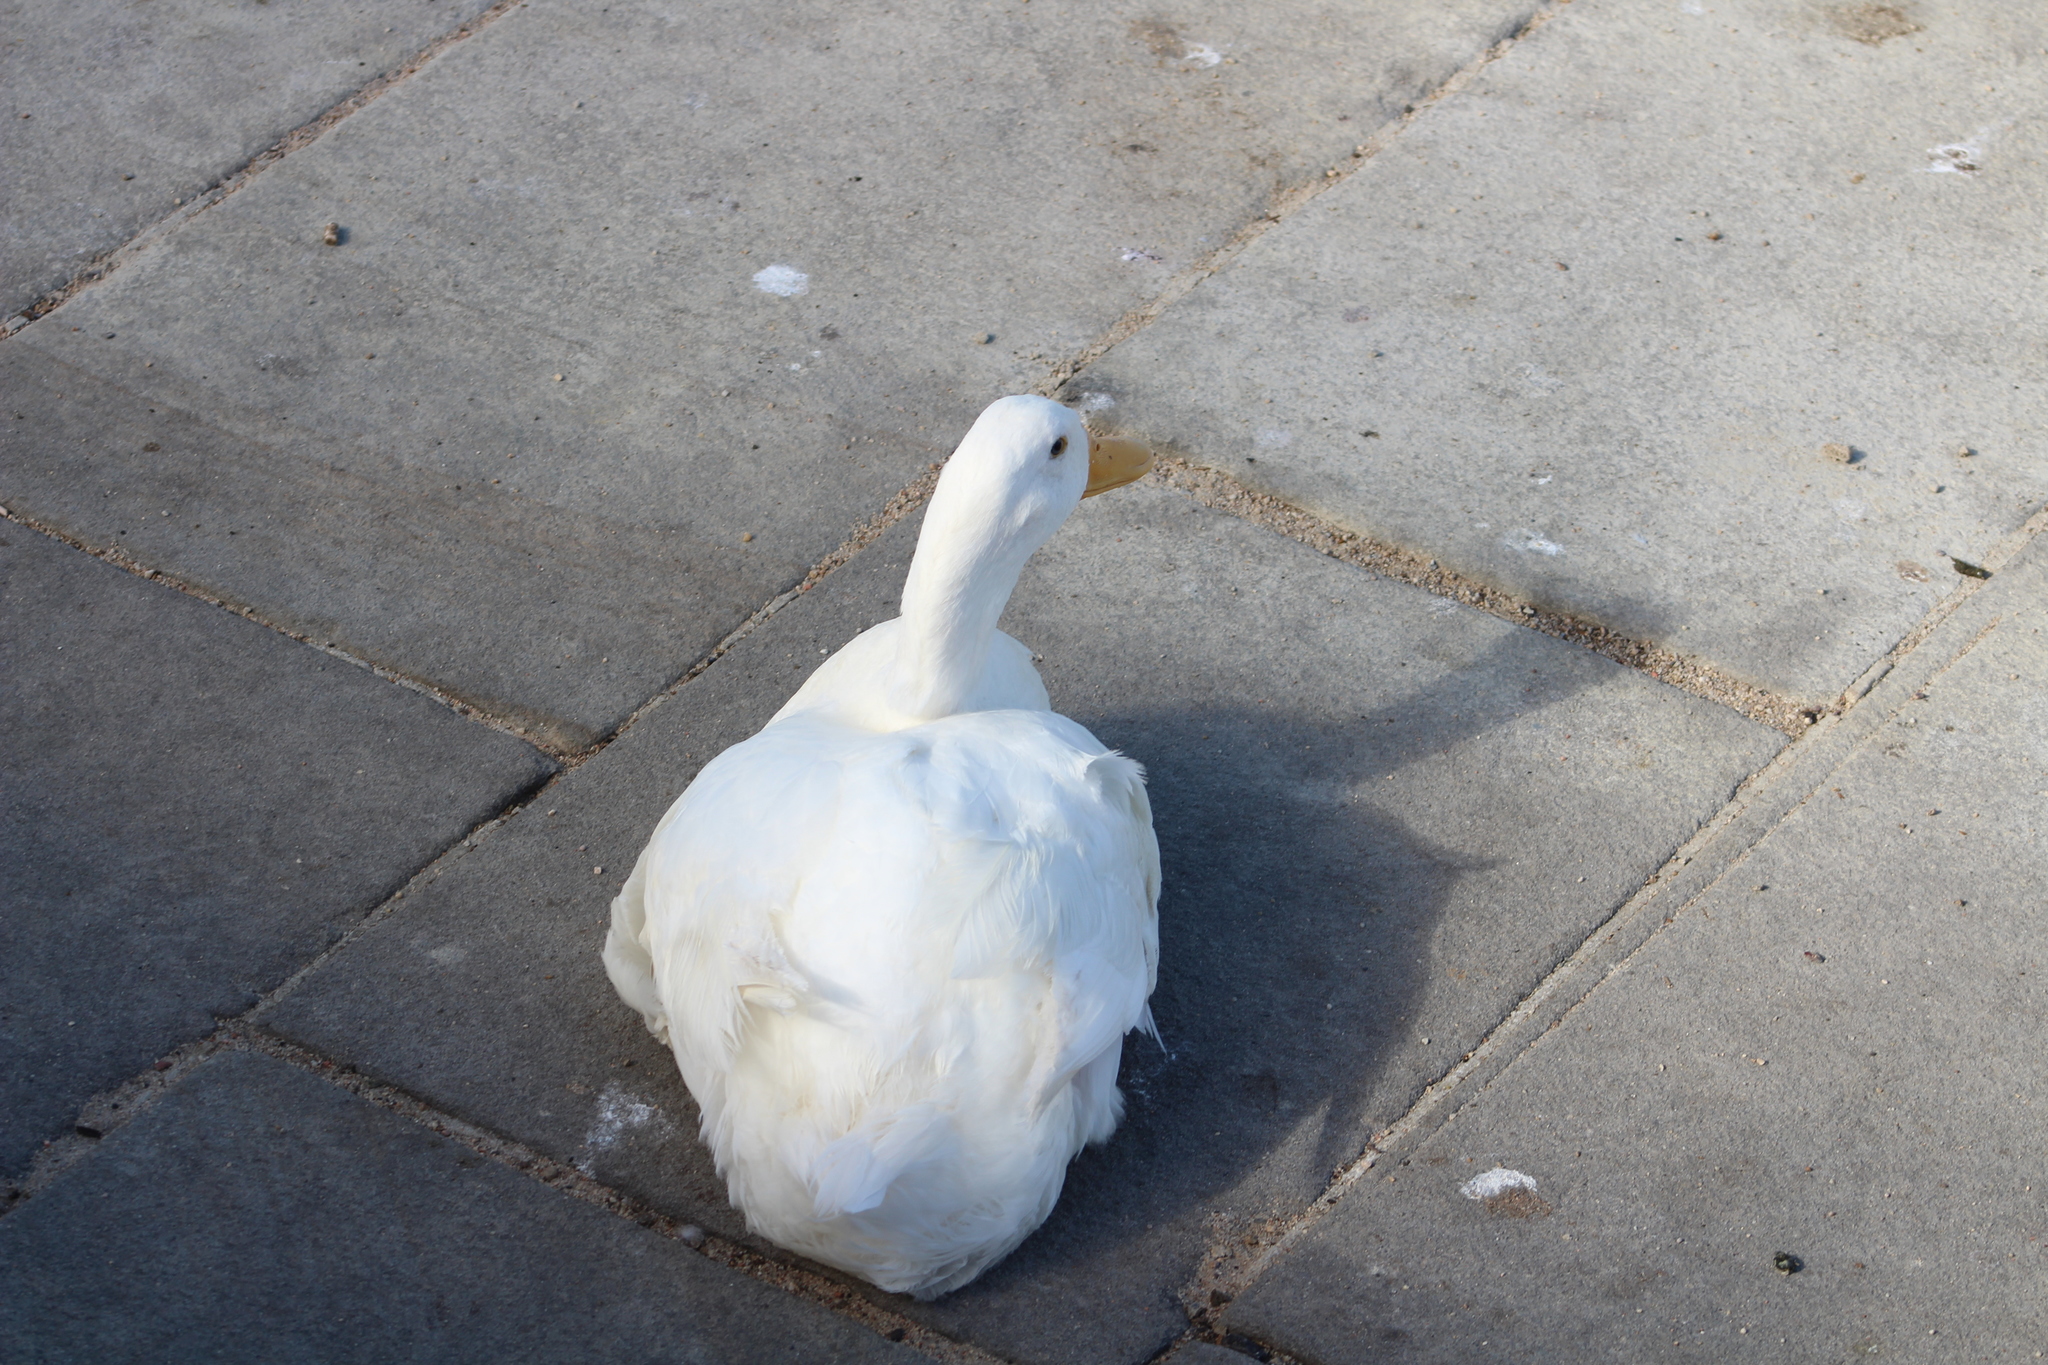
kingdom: Animalia
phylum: Chordata
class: Aves
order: Anseriformes
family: Anatidae
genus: Anas
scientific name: Anas platyrhynchos
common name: Mallard
